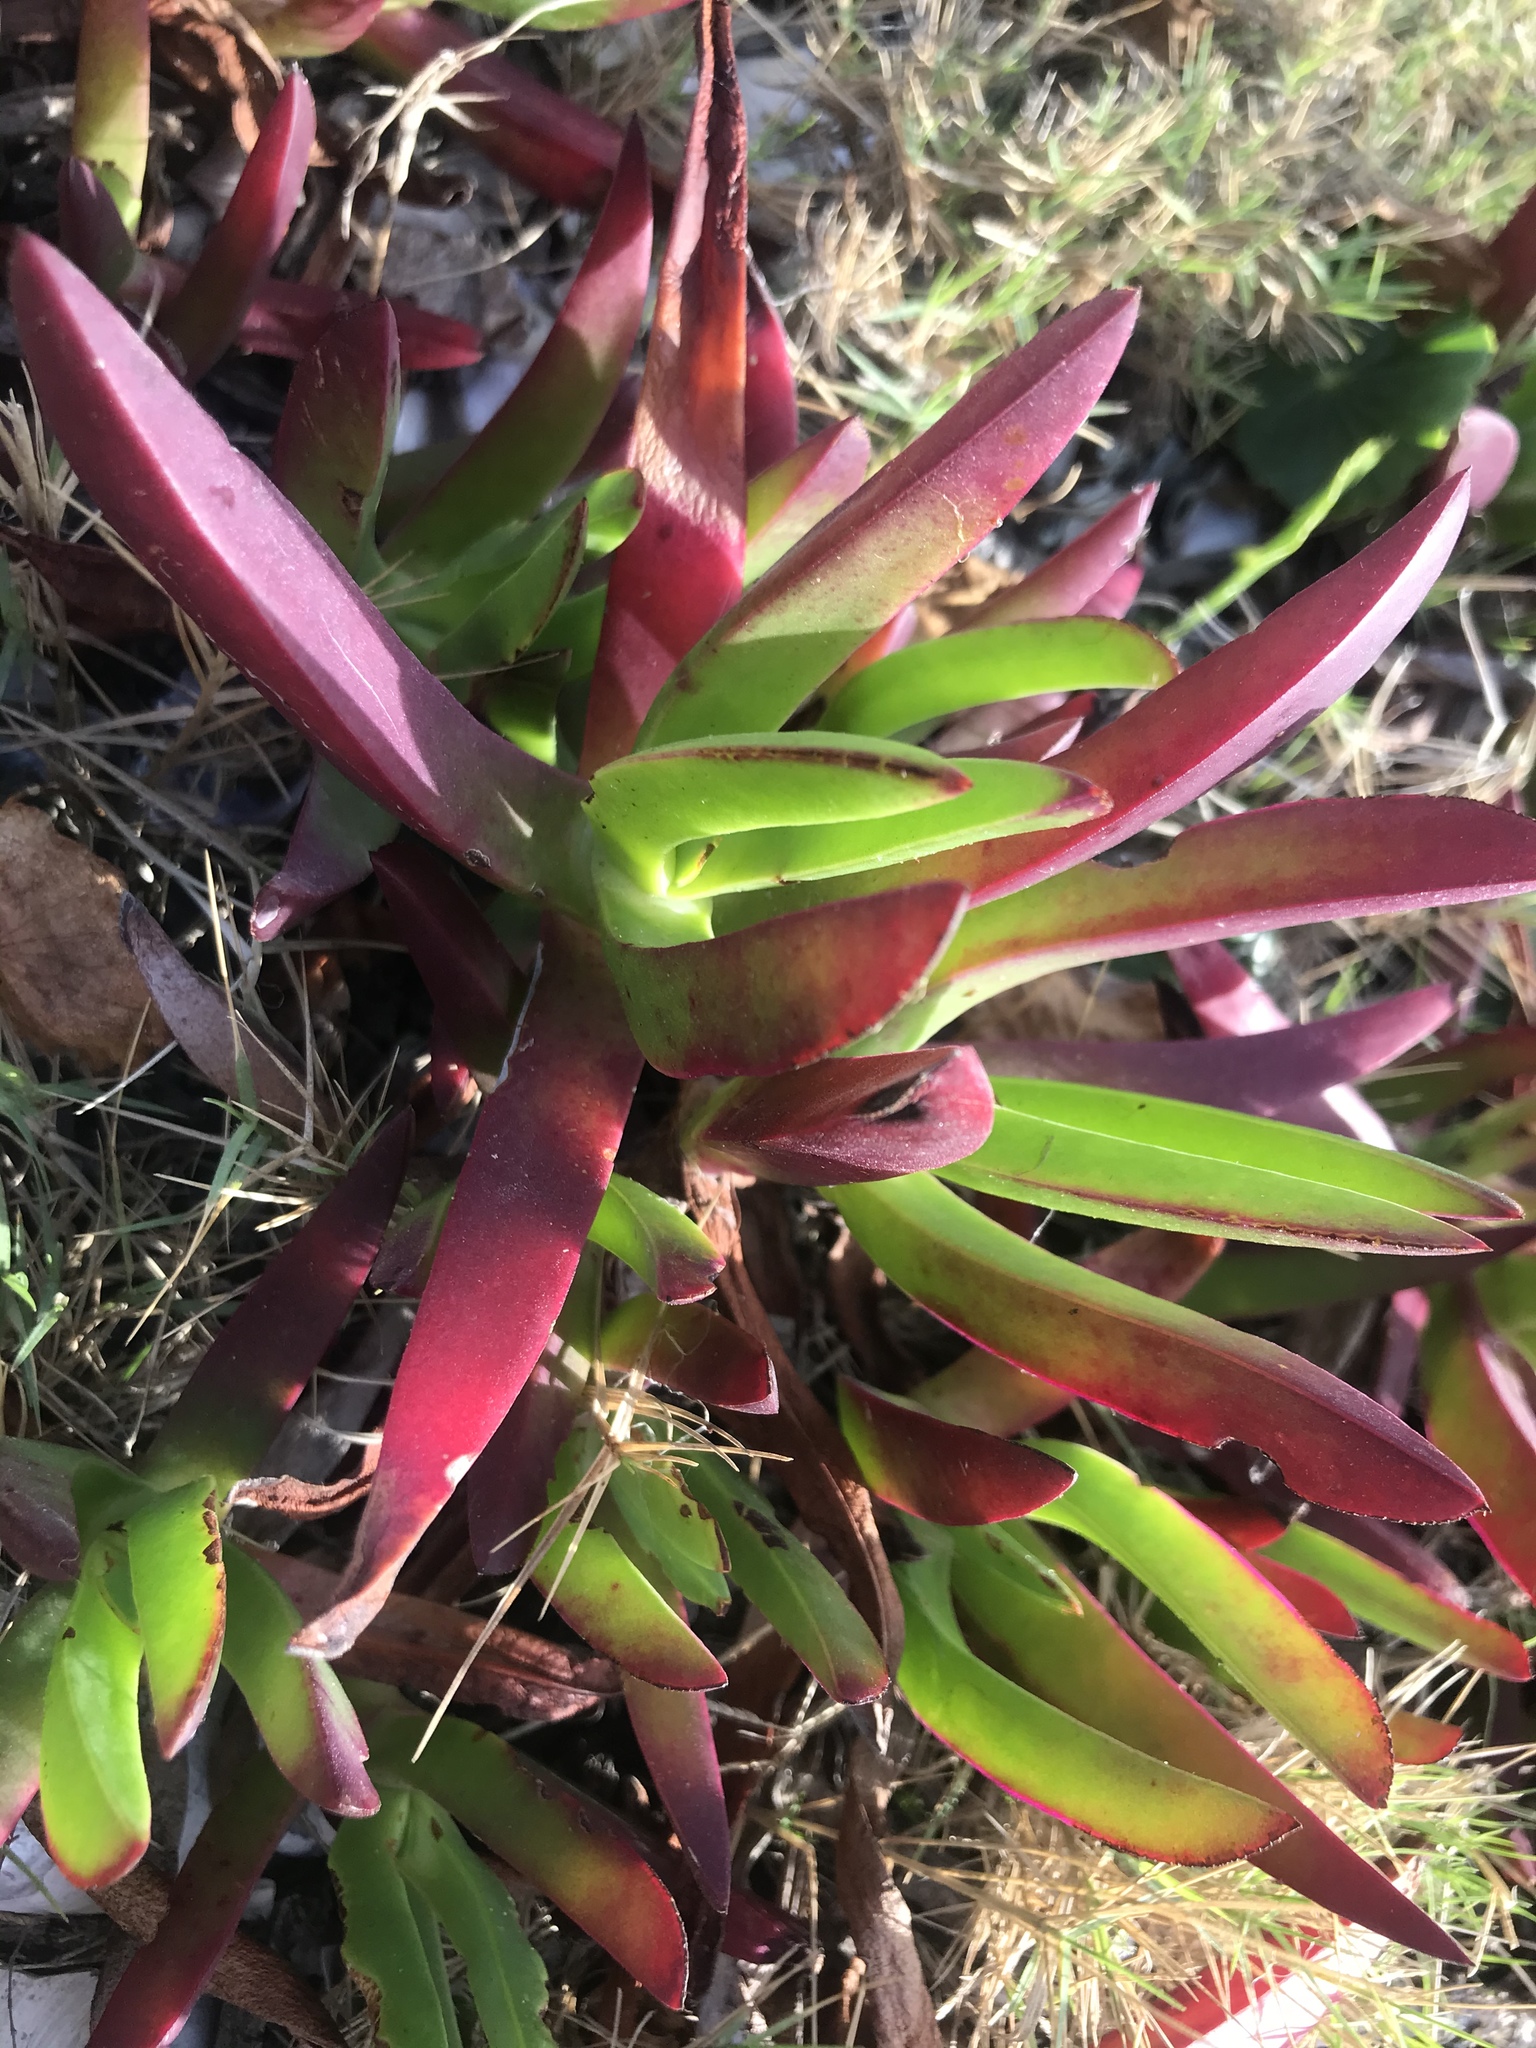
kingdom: Plantae
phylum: Tracheophyta
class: Magnoliopsida
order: Caryophyllales
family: Aizoaceae
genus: Carpobrotus
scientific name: Carpobrotus edulis
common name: Hottentot-fig
